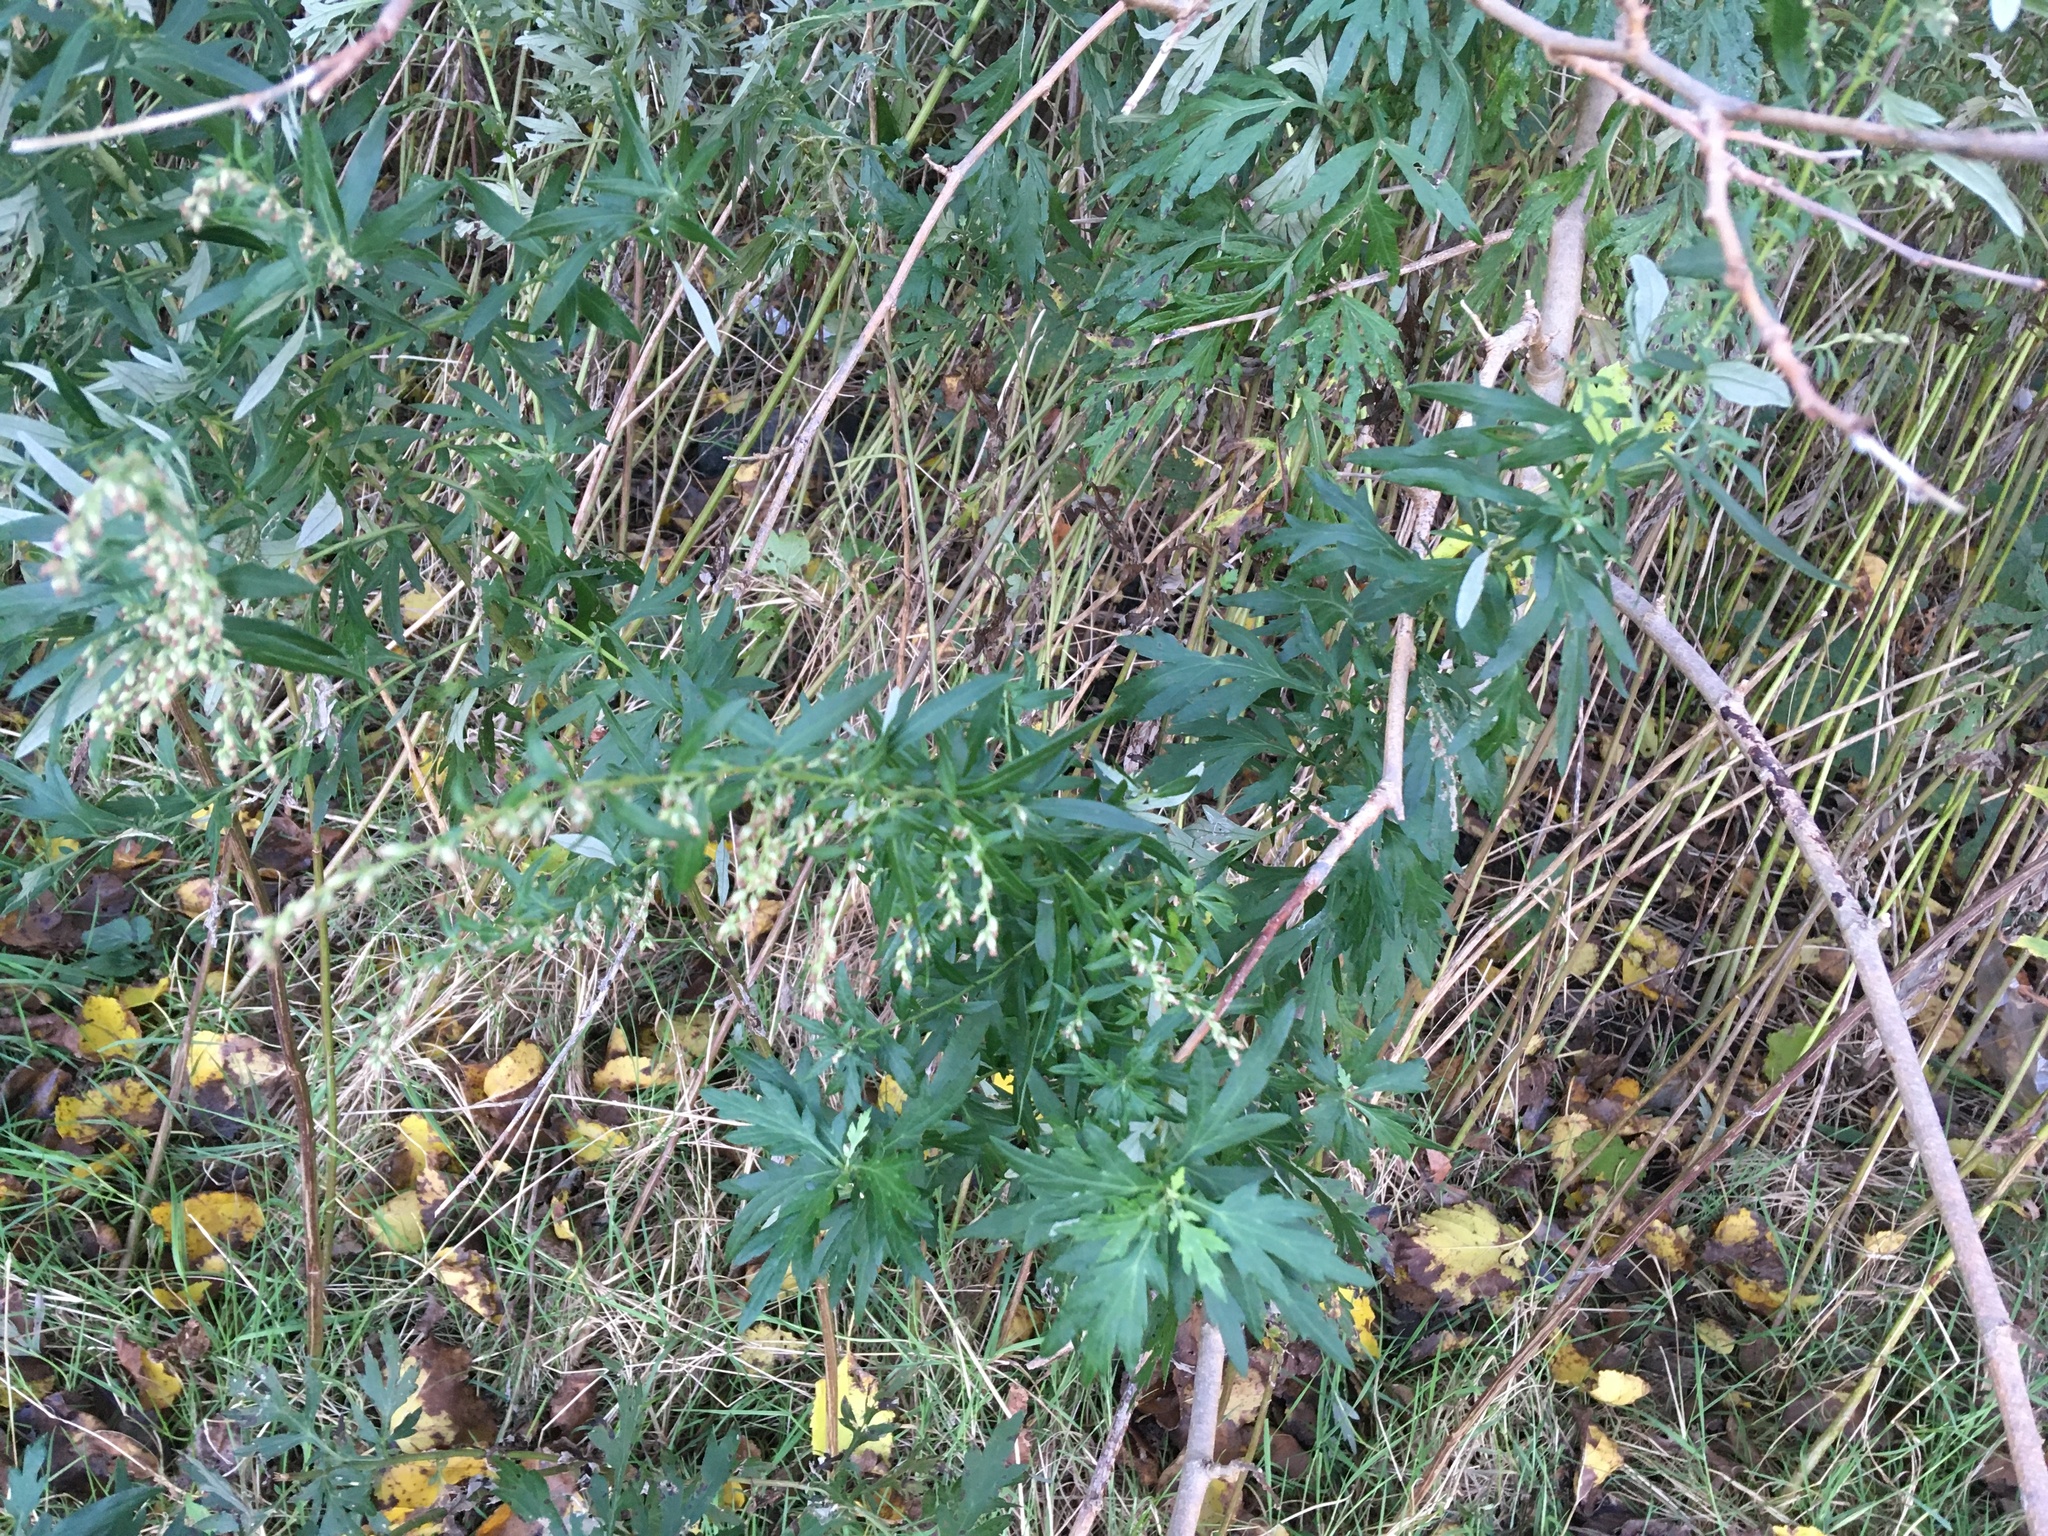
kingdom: Plantae
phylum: Tracheophyta
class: Magnoliopsida
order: Asterales
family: Asteraceae
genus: Artemisia
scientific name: Artemisia vulgaris
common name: Mugwort
